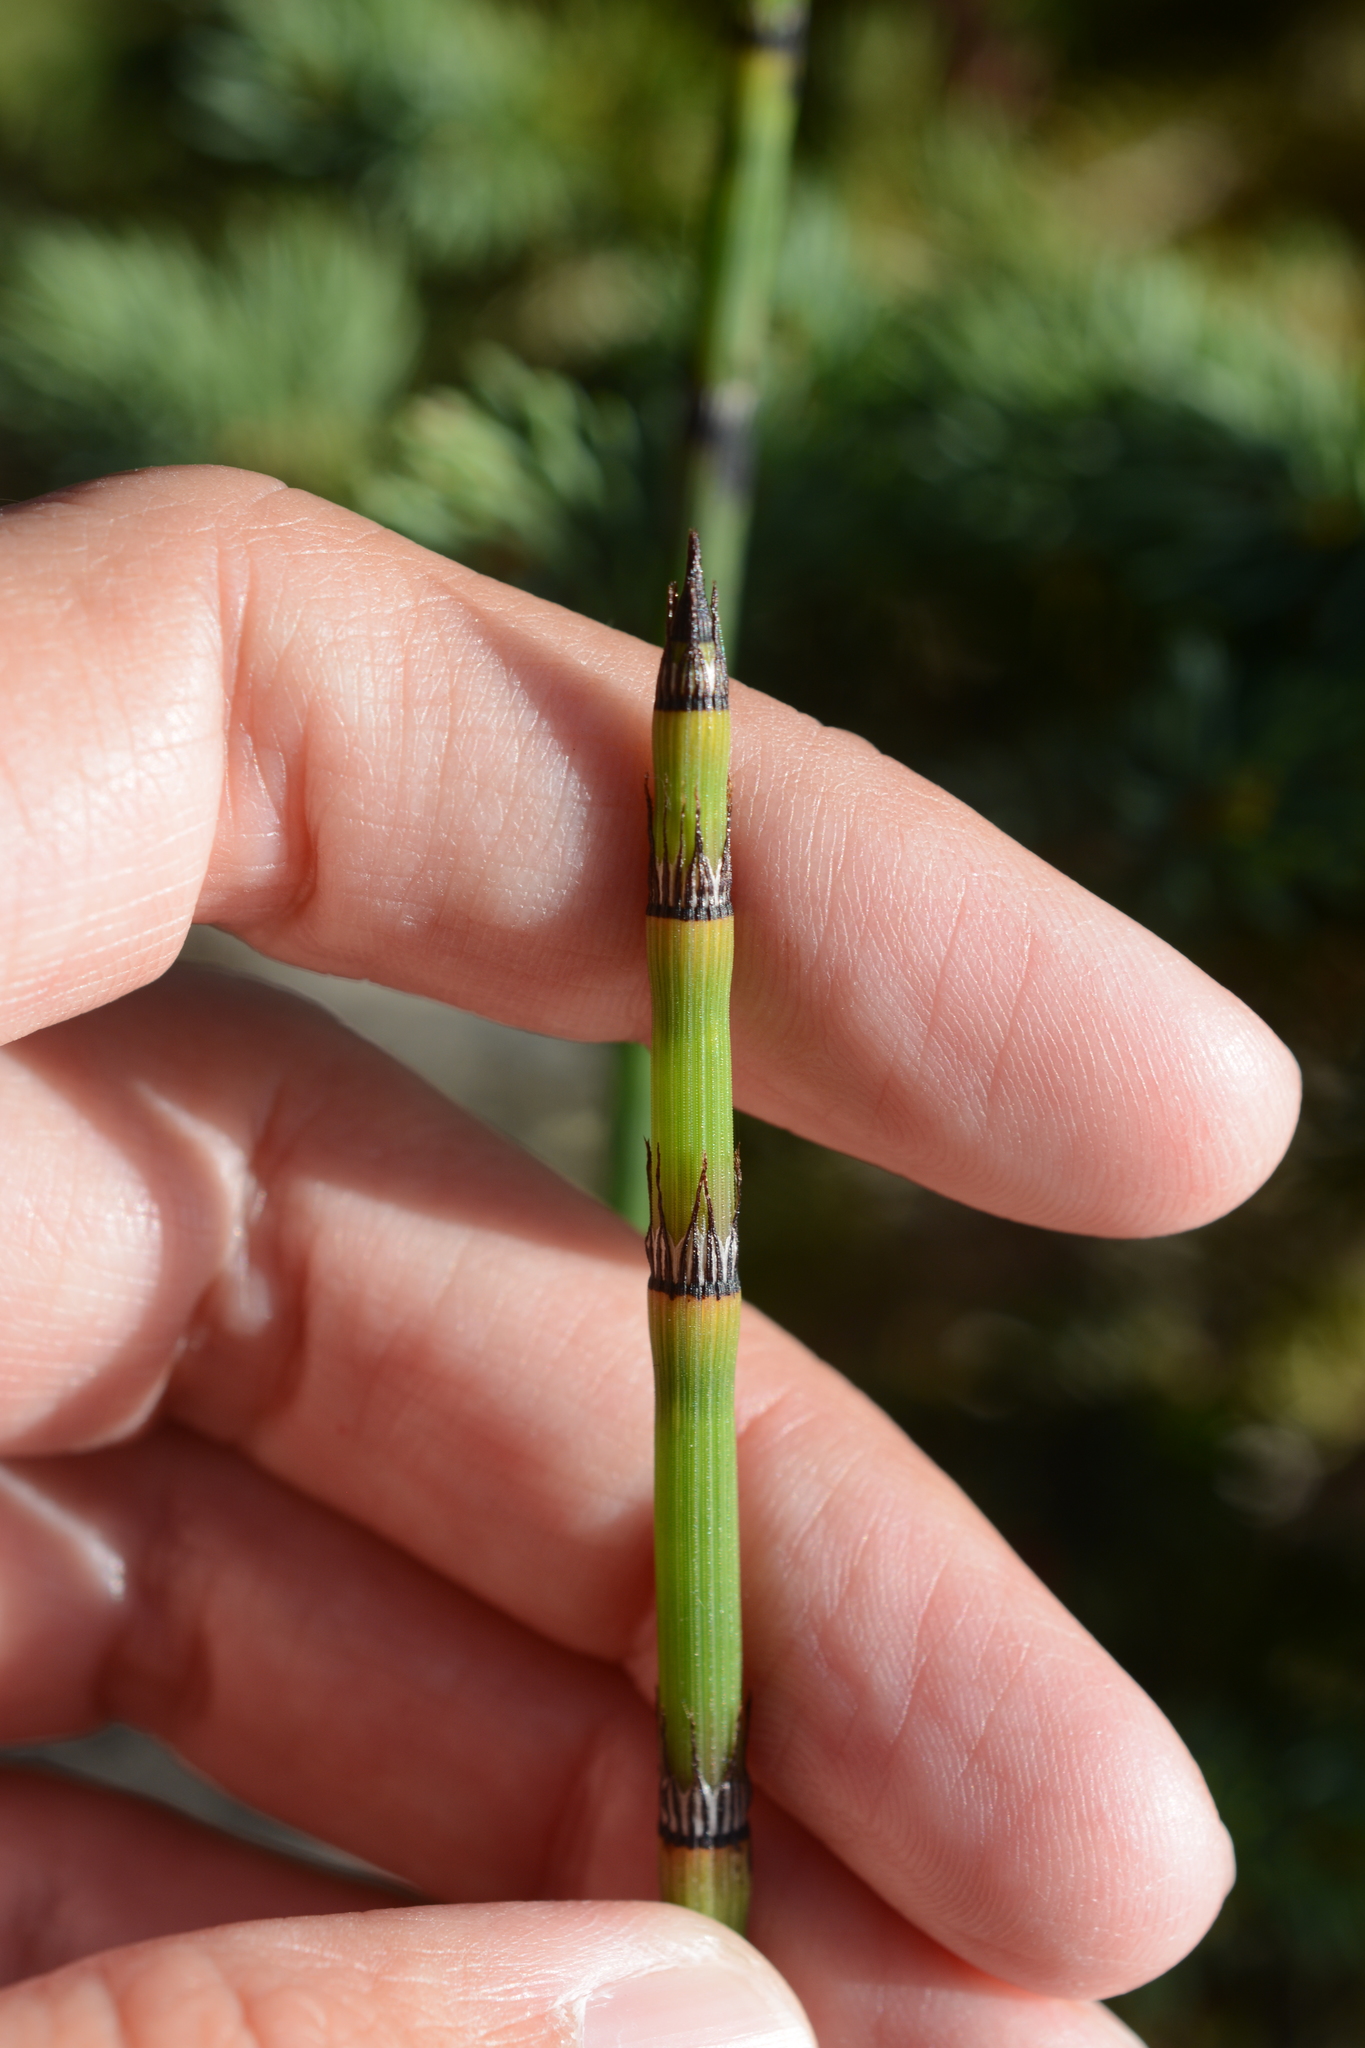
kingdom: Plantae
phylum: Tracheophyta
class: Polypodiopsida
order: Equisetales
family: Equisetaceae
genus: Equisetum
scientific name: Equisetum trachyodon
